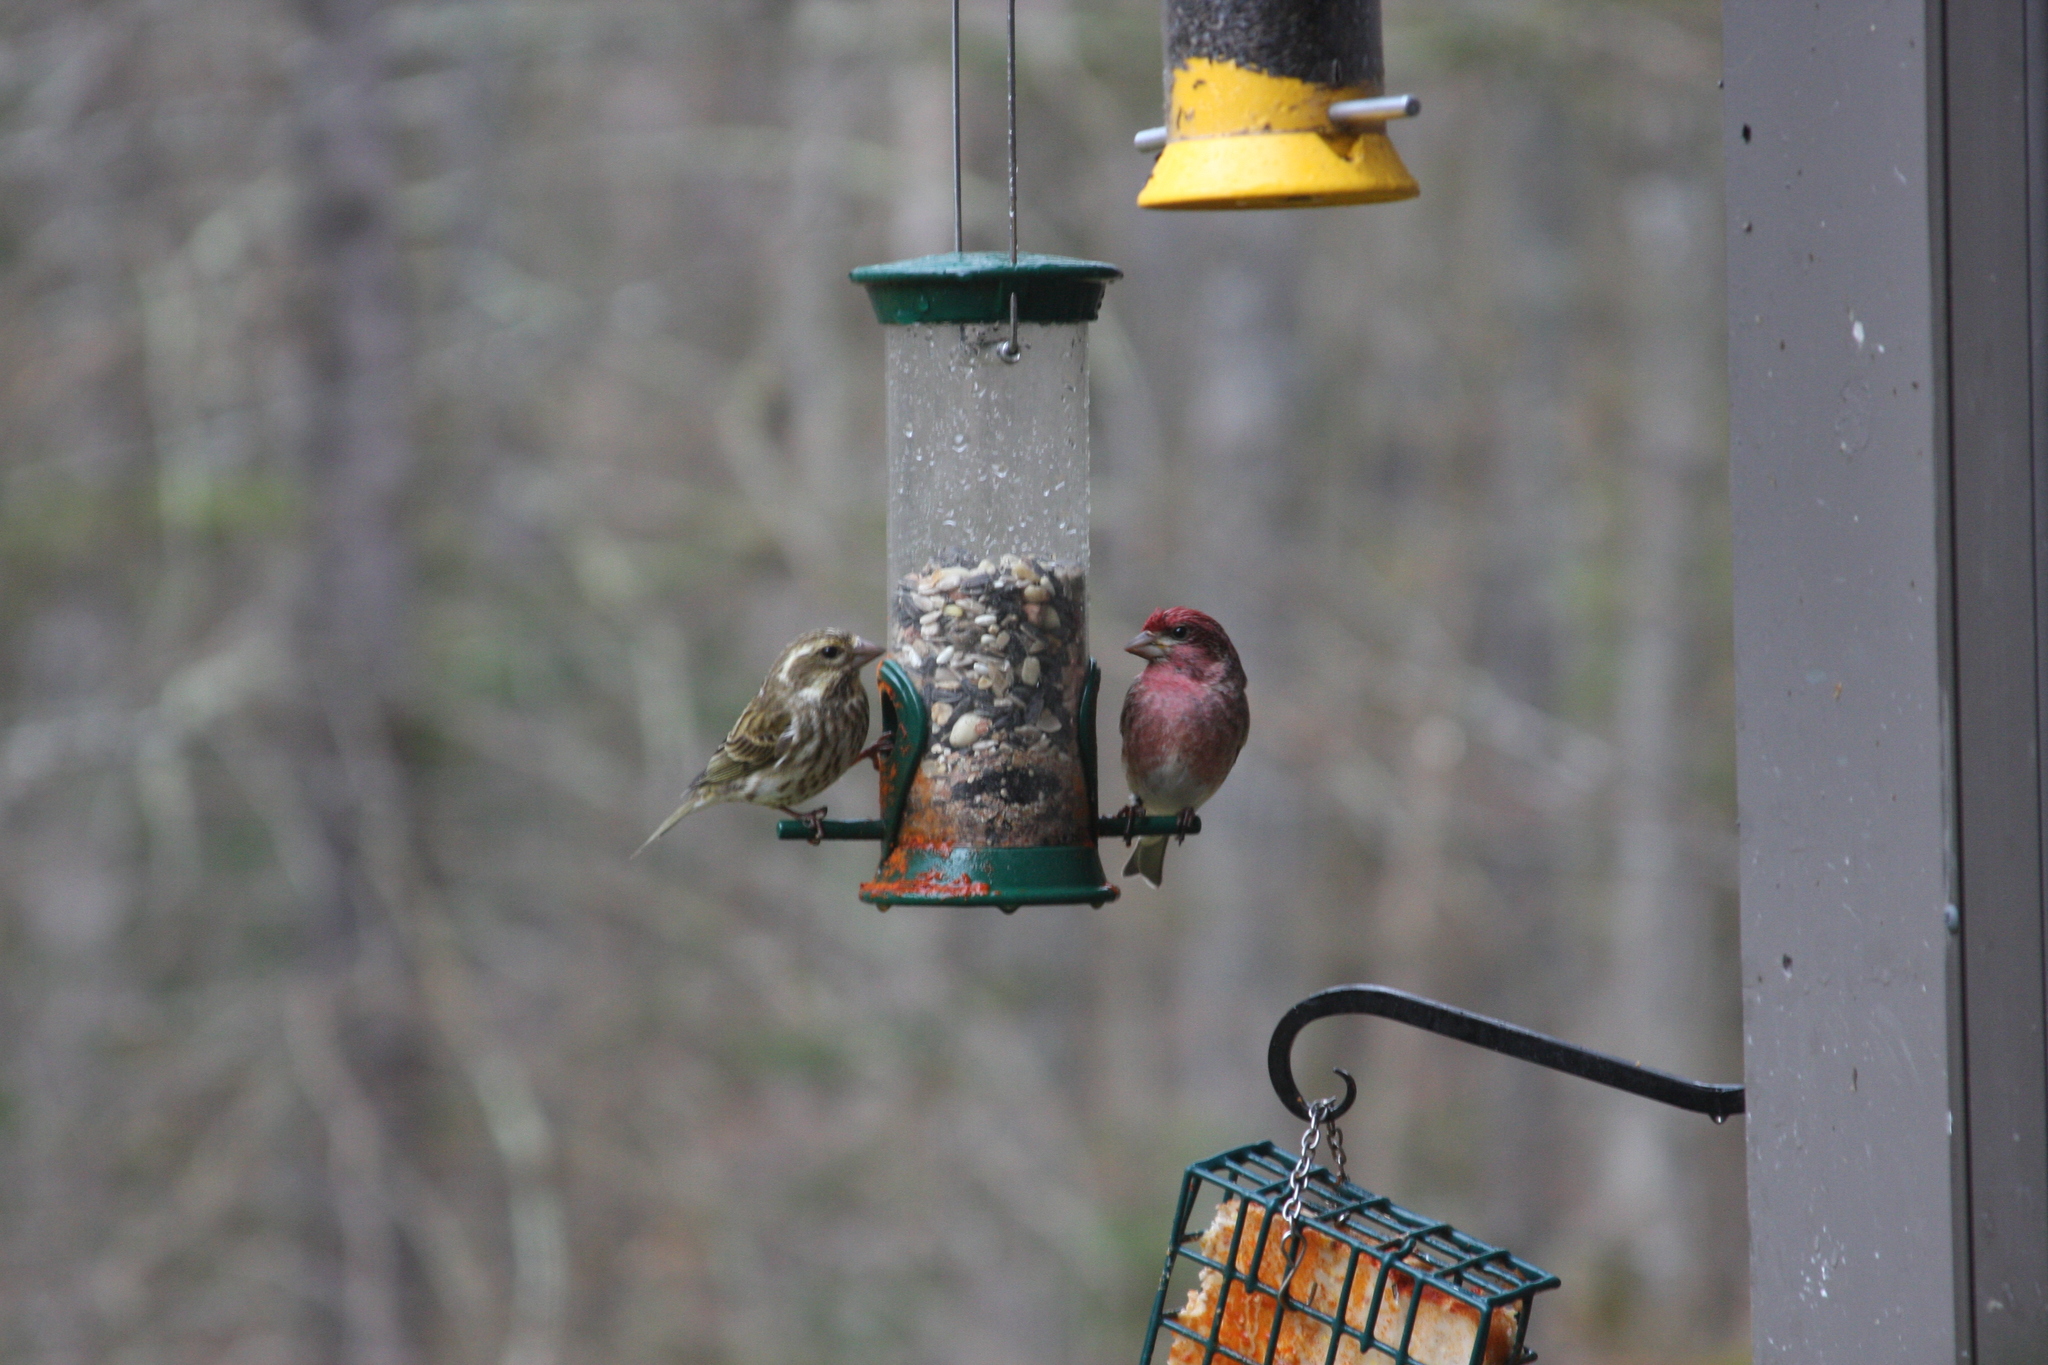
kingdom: Animalia
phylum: Chordata
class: Aves
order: Passeriformes
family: Fringillidae
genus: Haemorhous
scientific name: Haemorhous purpureus
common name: Purple finch
